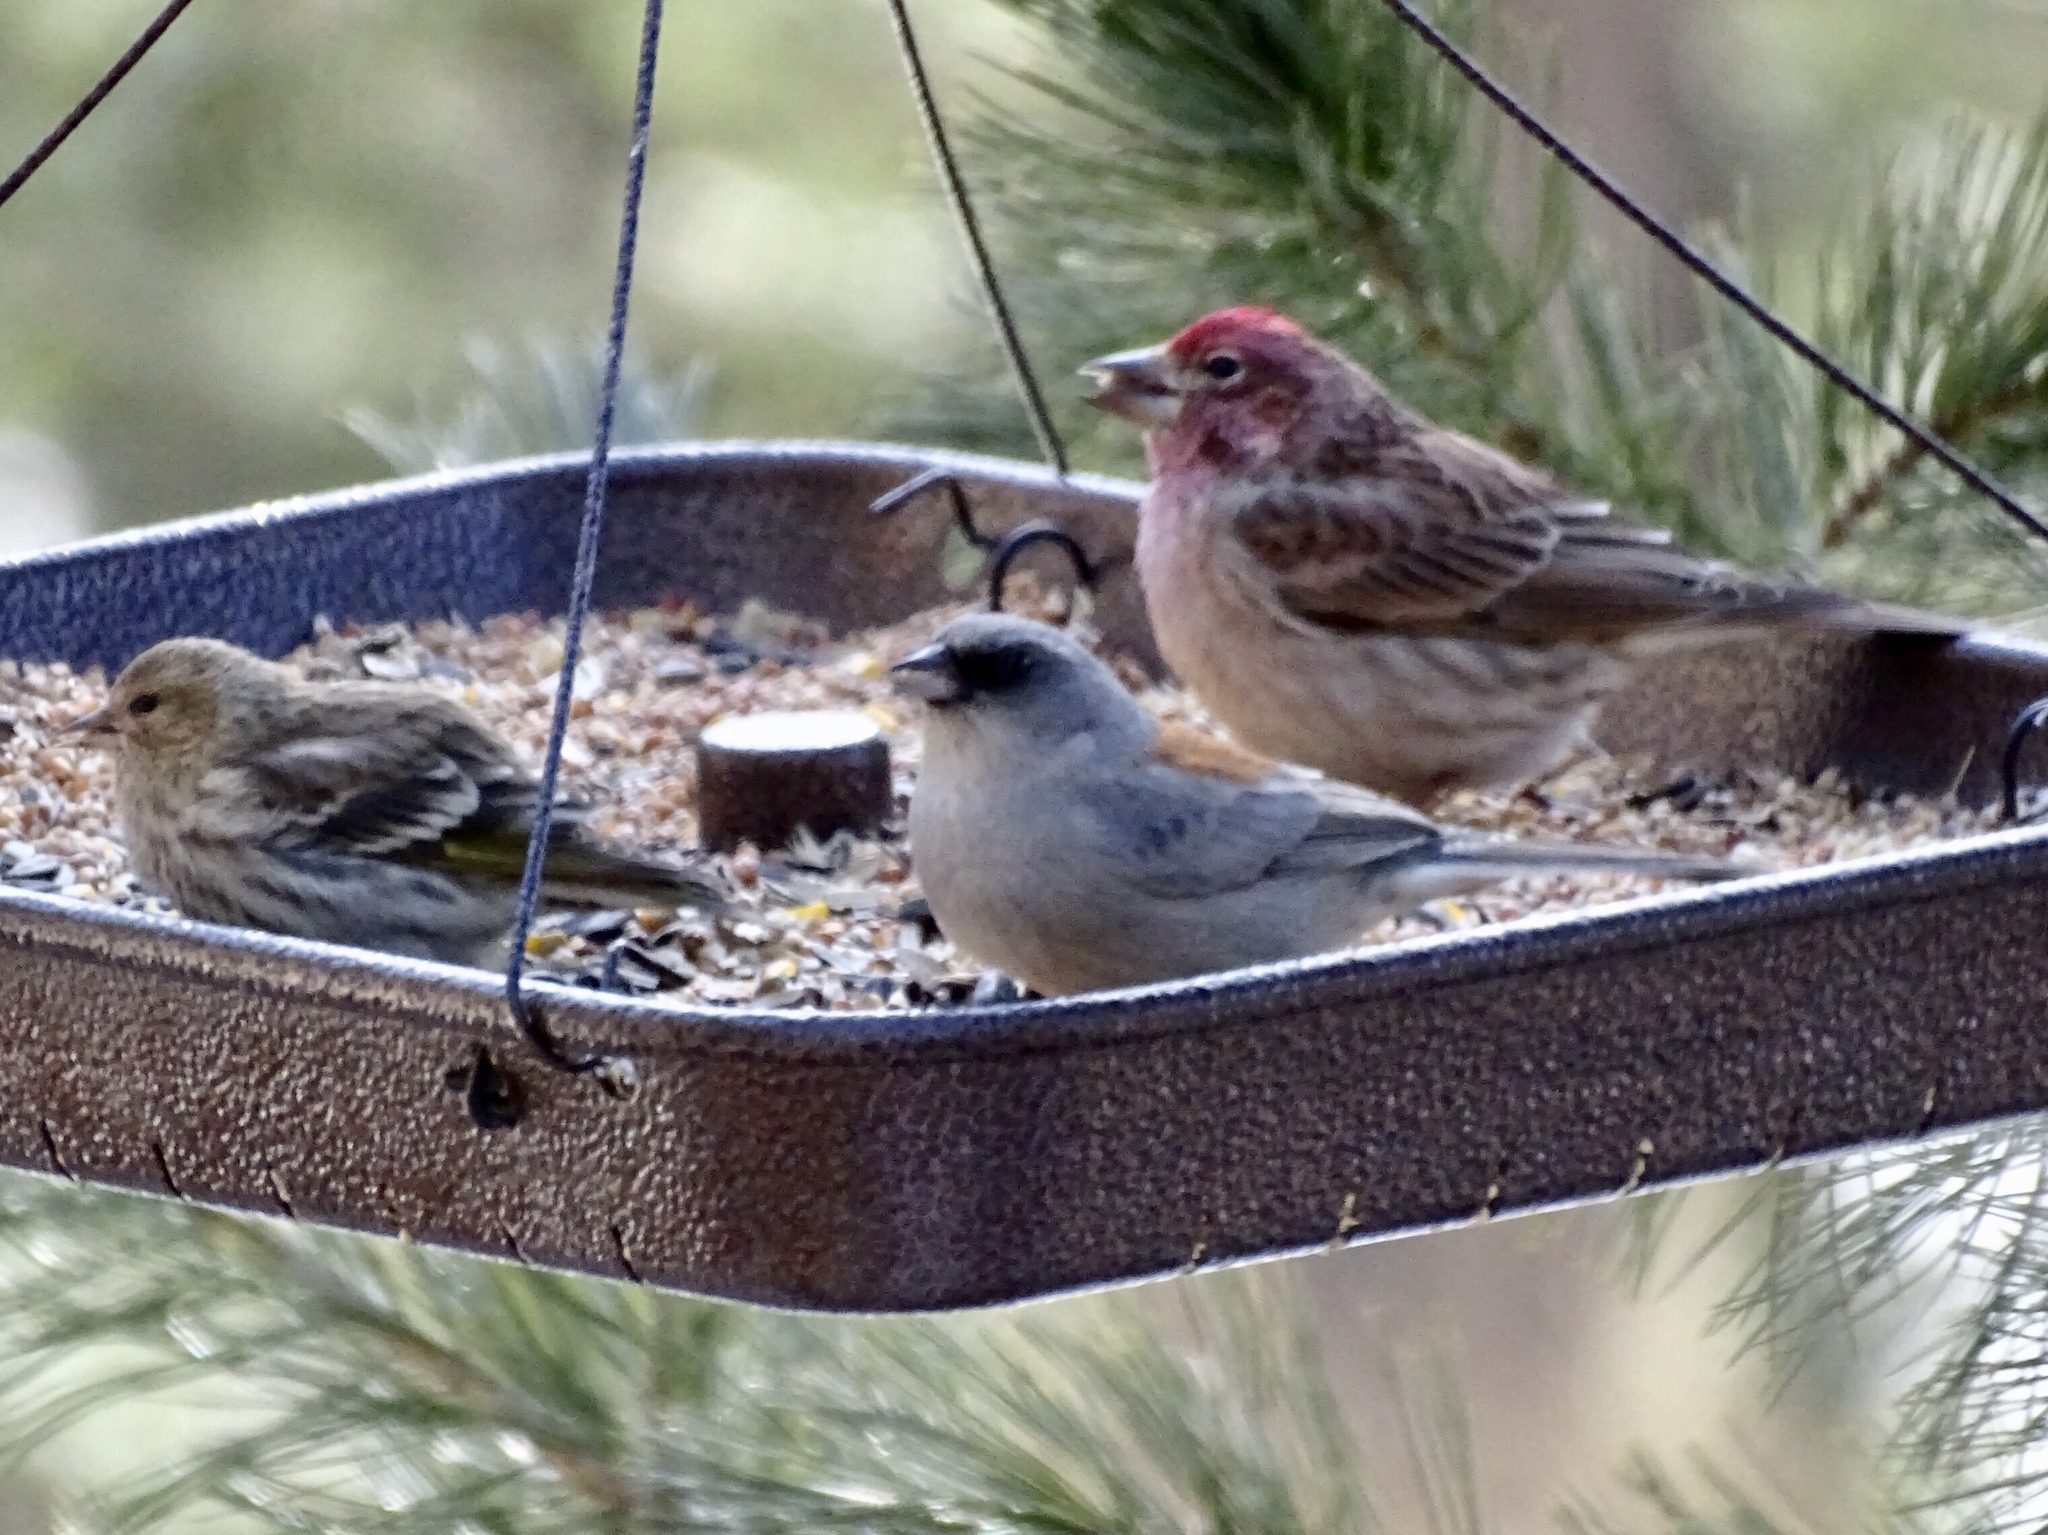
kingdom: Animalia
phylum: Chordata
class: Aves
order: Passeriformes
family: Passerellidae
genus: Junco
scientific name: Junco hyemalis
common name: Dark-eyed junco
